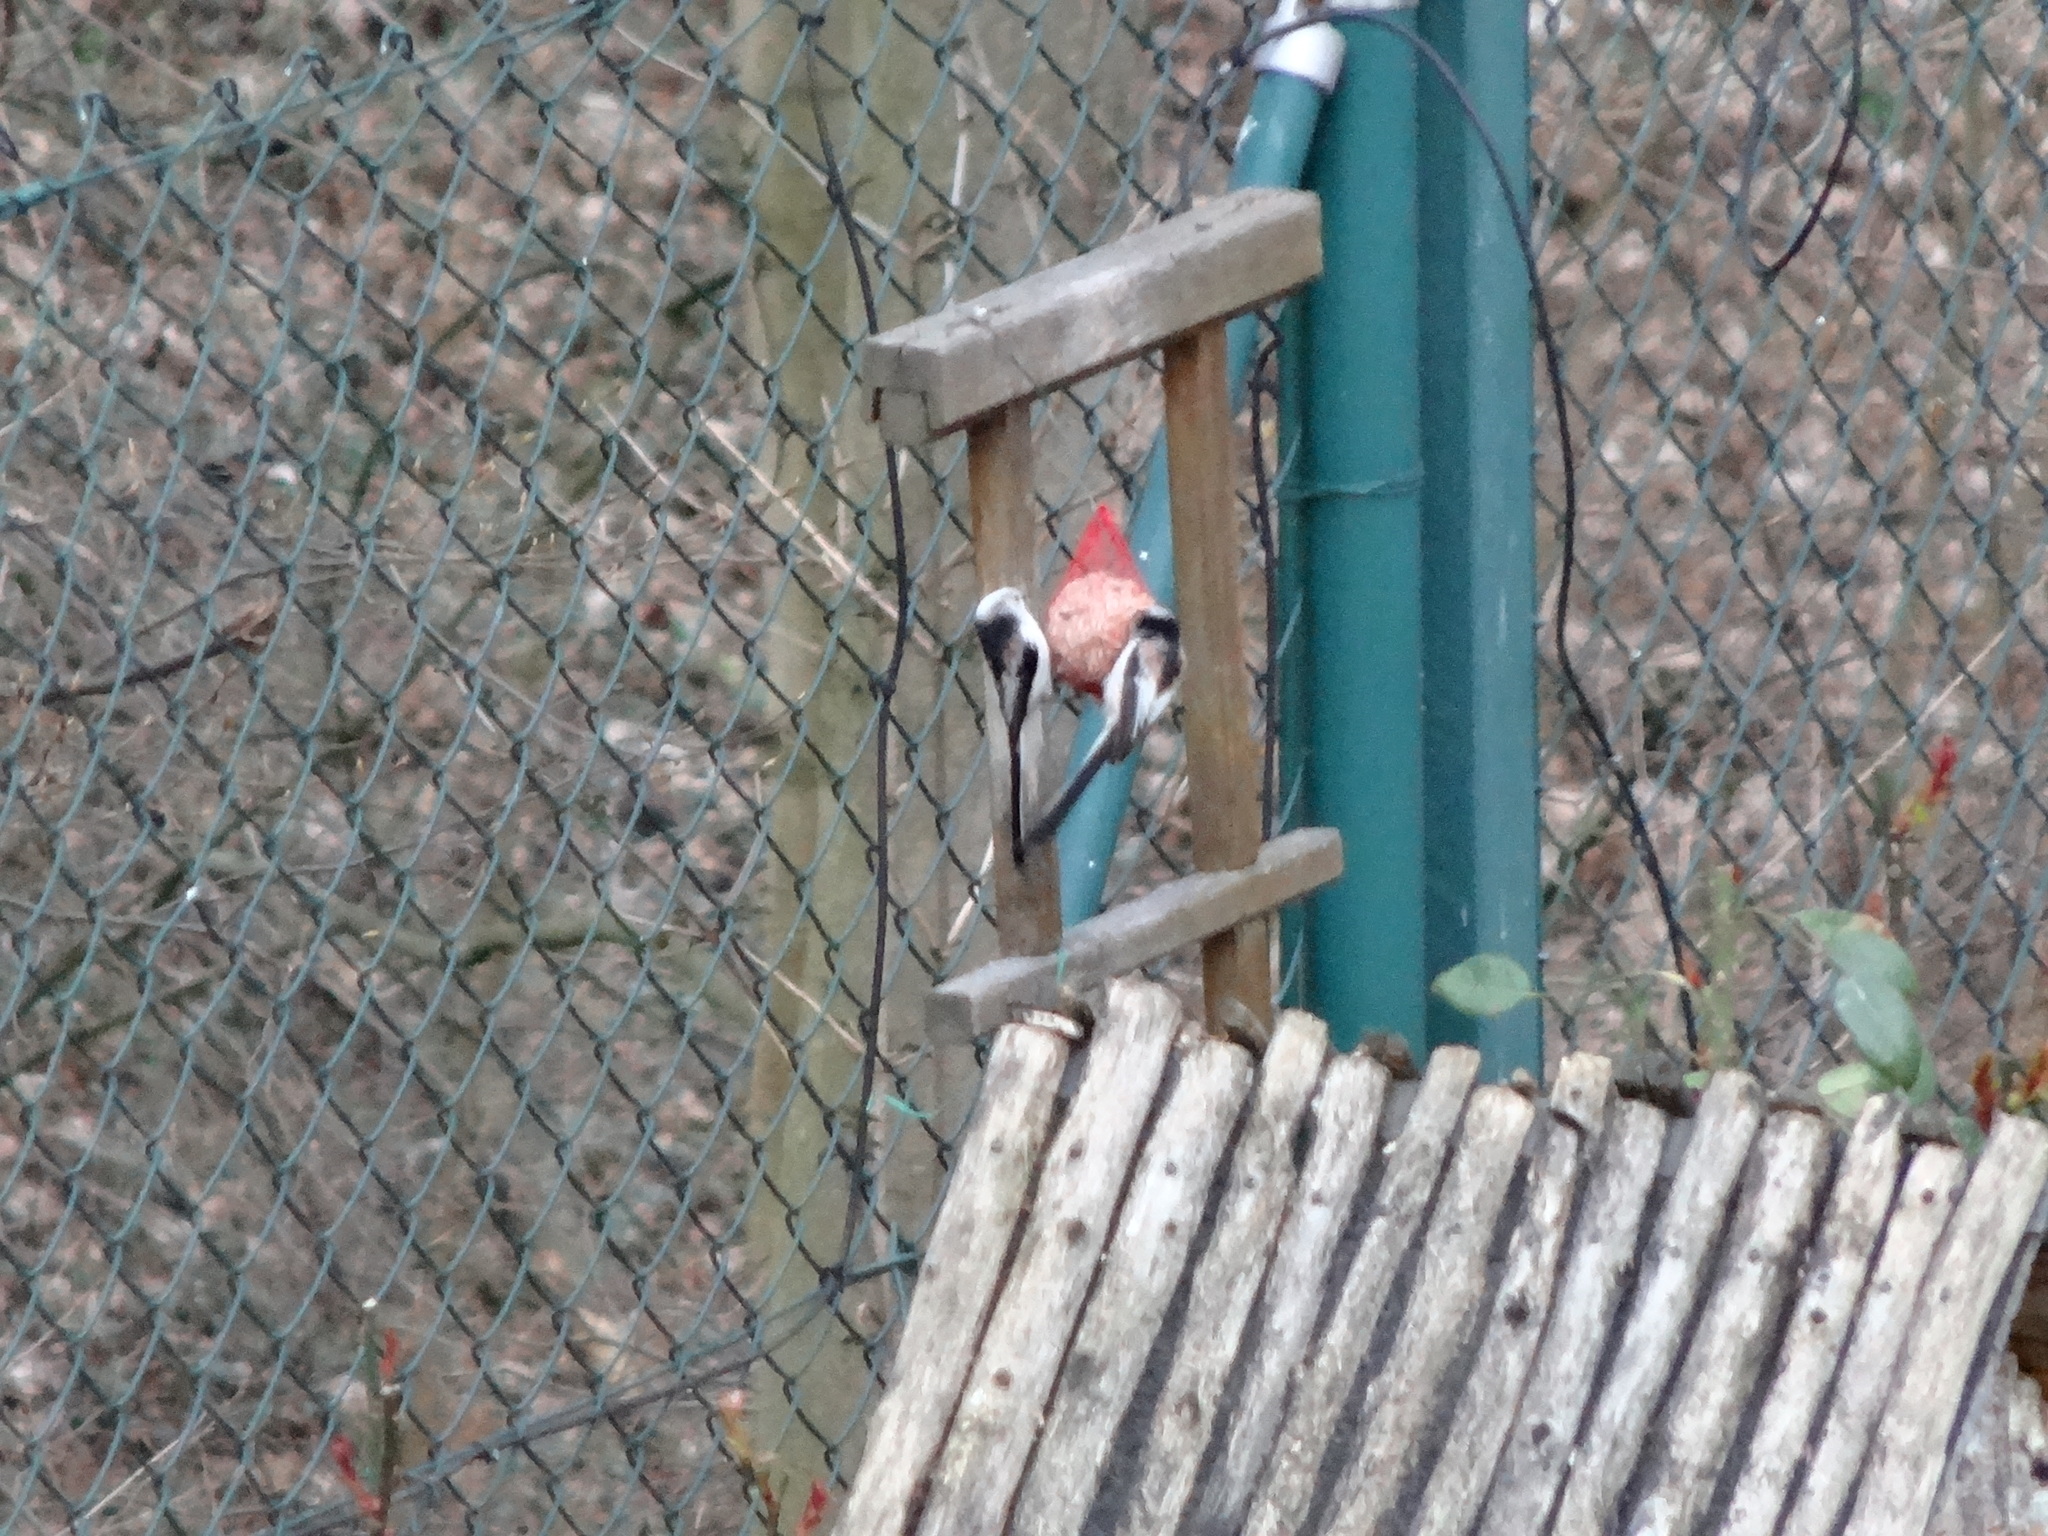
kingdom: Animalia
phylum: Chordata
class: Aves
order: Passeriformes
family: Aegithalidae
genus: Aegithalos
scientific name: Aegithalos caudatus
